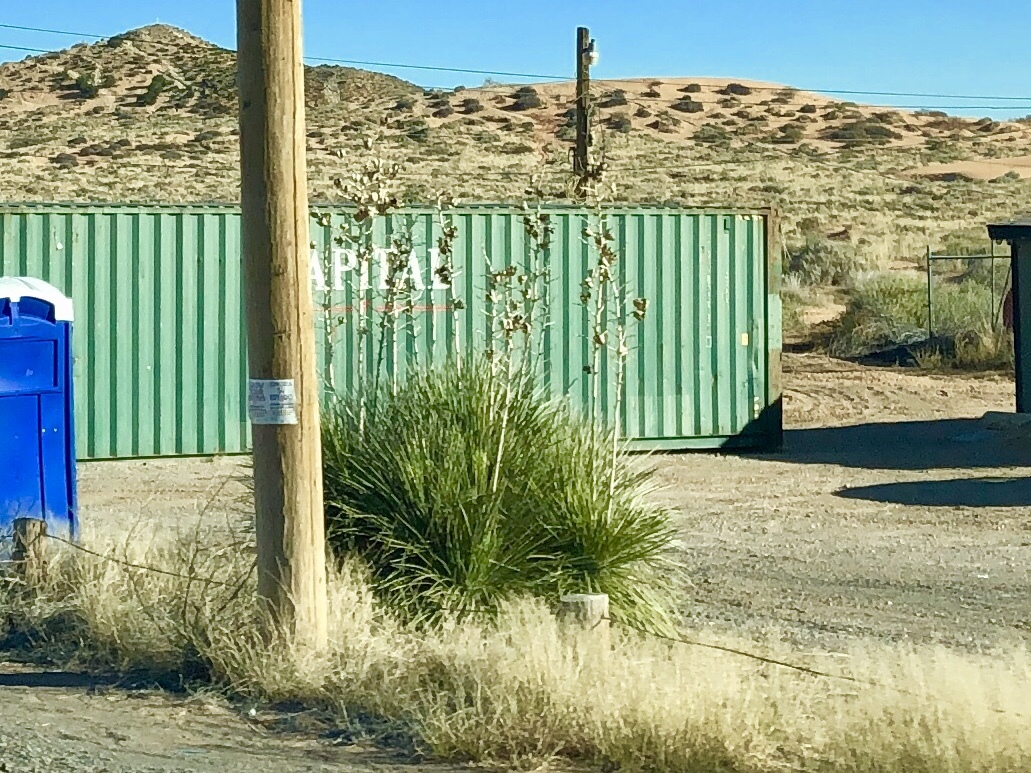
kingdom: Plantae
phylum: Tracheophyta
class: Liliopsida
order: Asparagales
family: Asparagaceae
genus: Yucca
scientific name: Yucca elata
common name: Palmella
